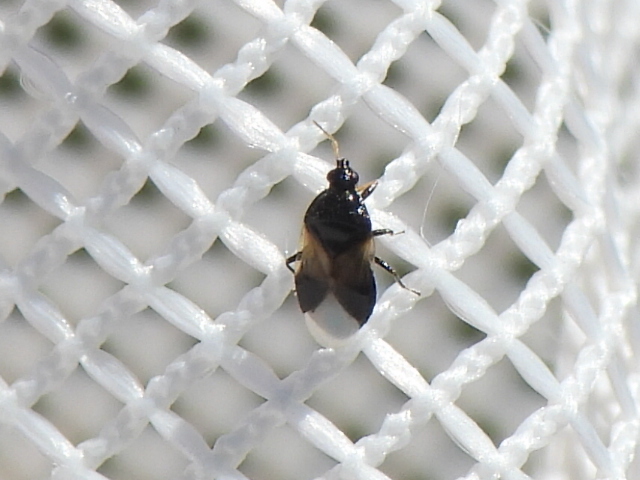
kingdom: Animalia
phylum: Arthropoda
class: Insecta
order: Hemiptera
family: Anthocoridae
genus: Orius
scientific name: Orius insidiosus
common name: Insidious flower bug
